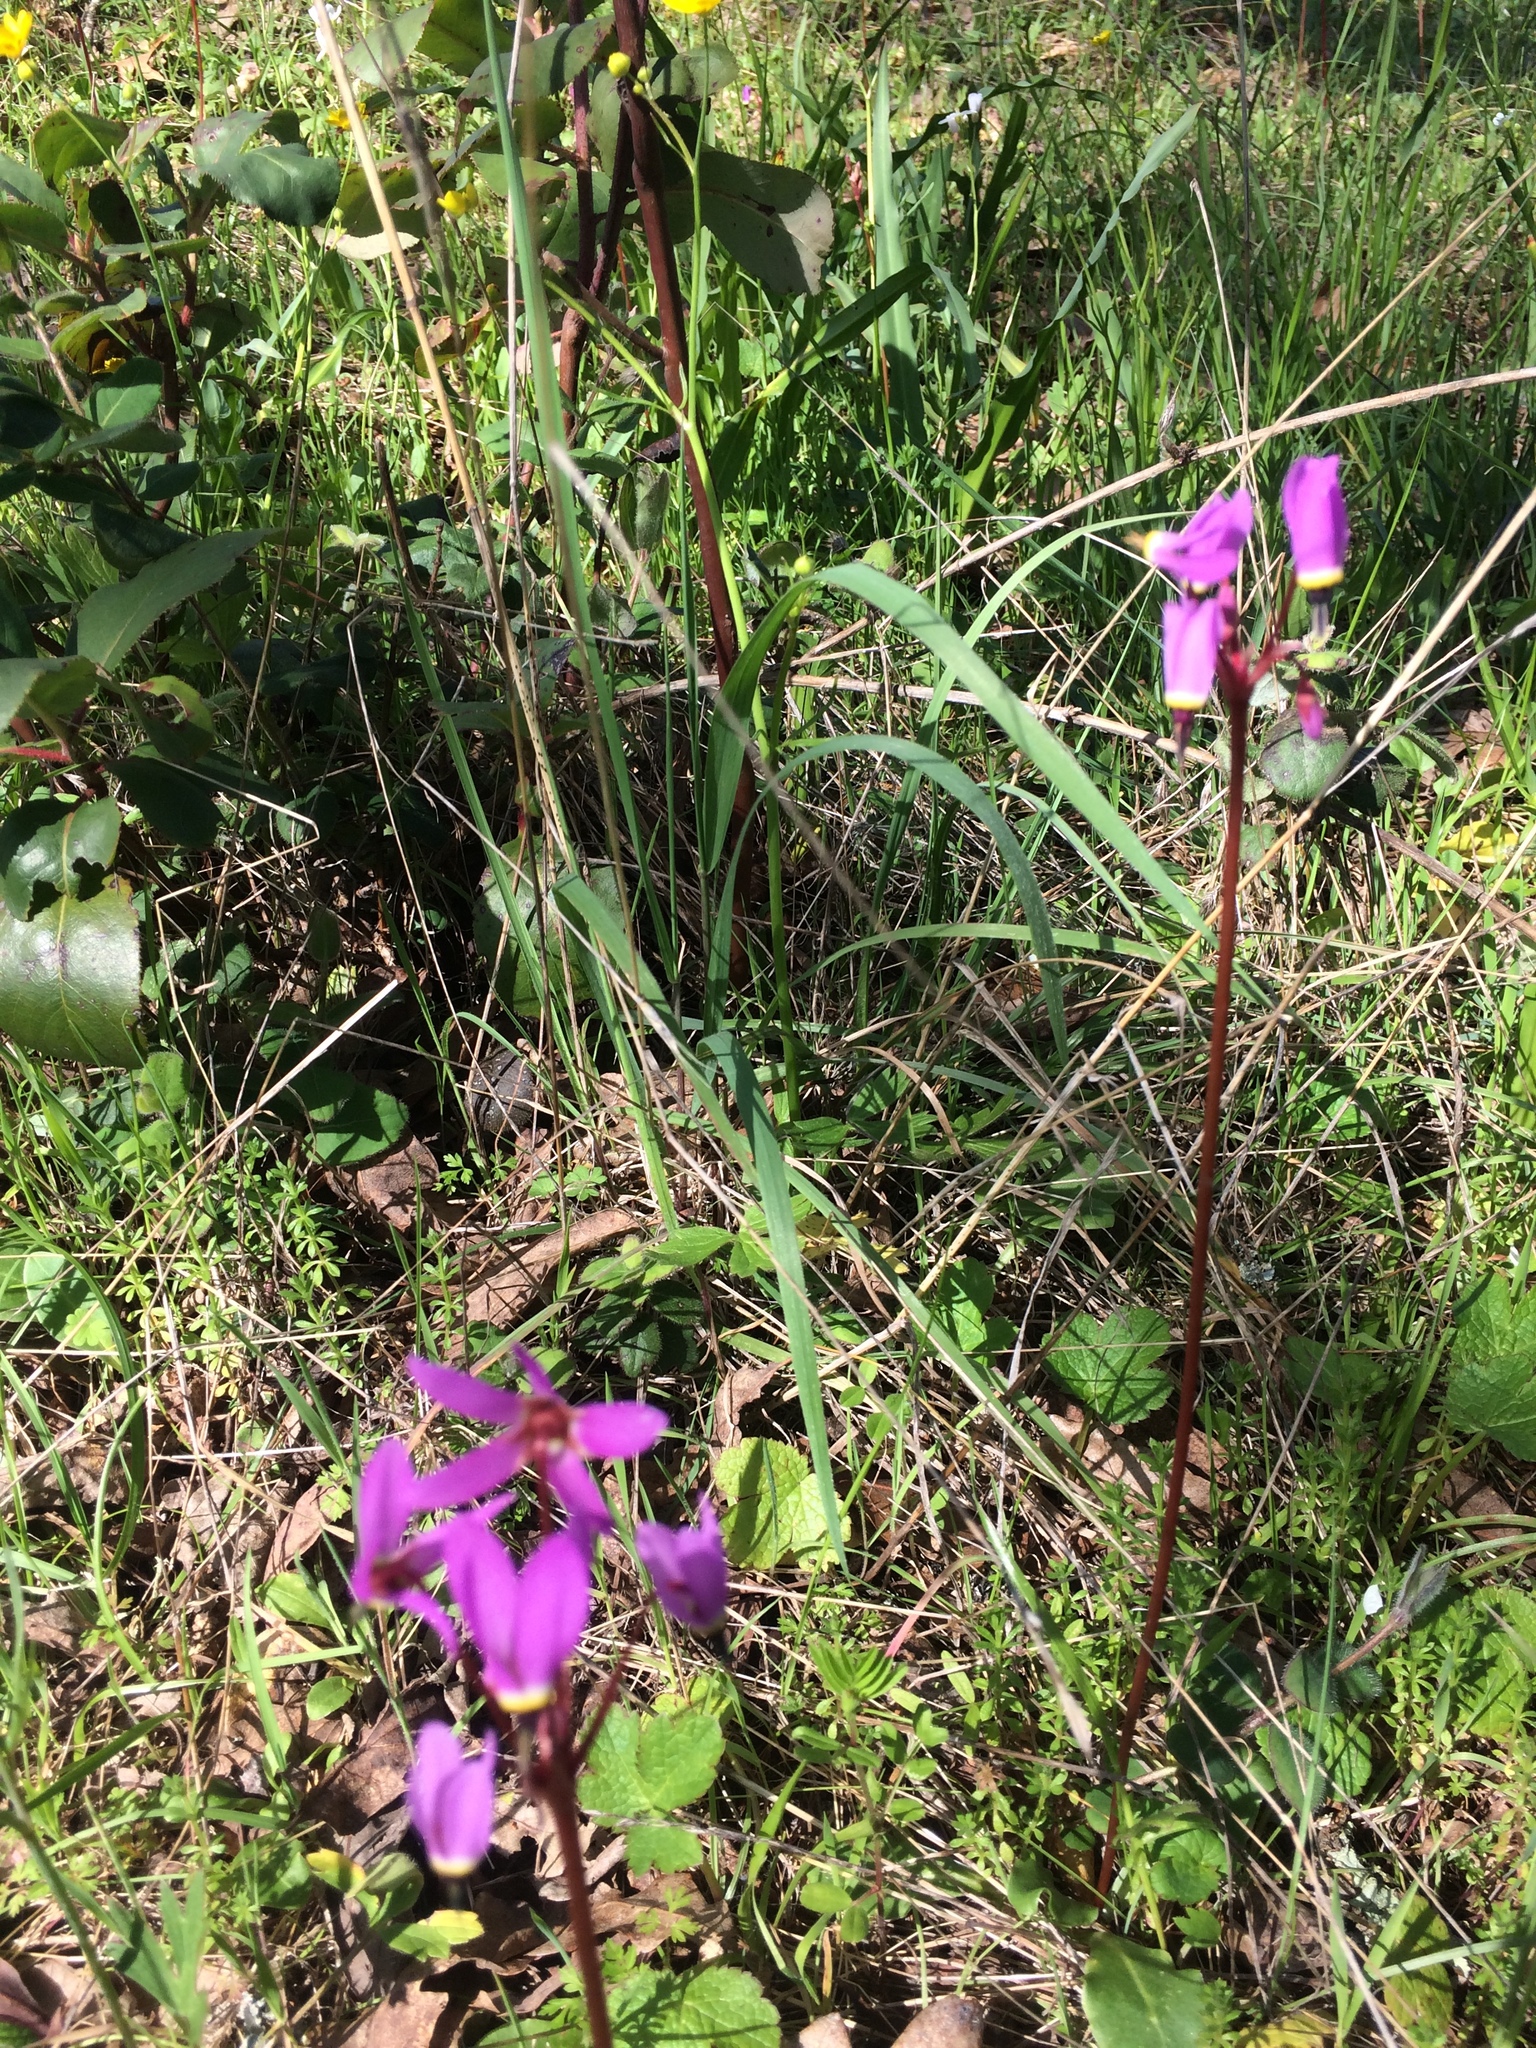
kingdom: Plantae
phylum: Tracheophyta
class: Magnoliopsida
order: Ericales
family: Primulaceae
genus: Dodecatheon
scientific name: Dodecatheon hendersonii
